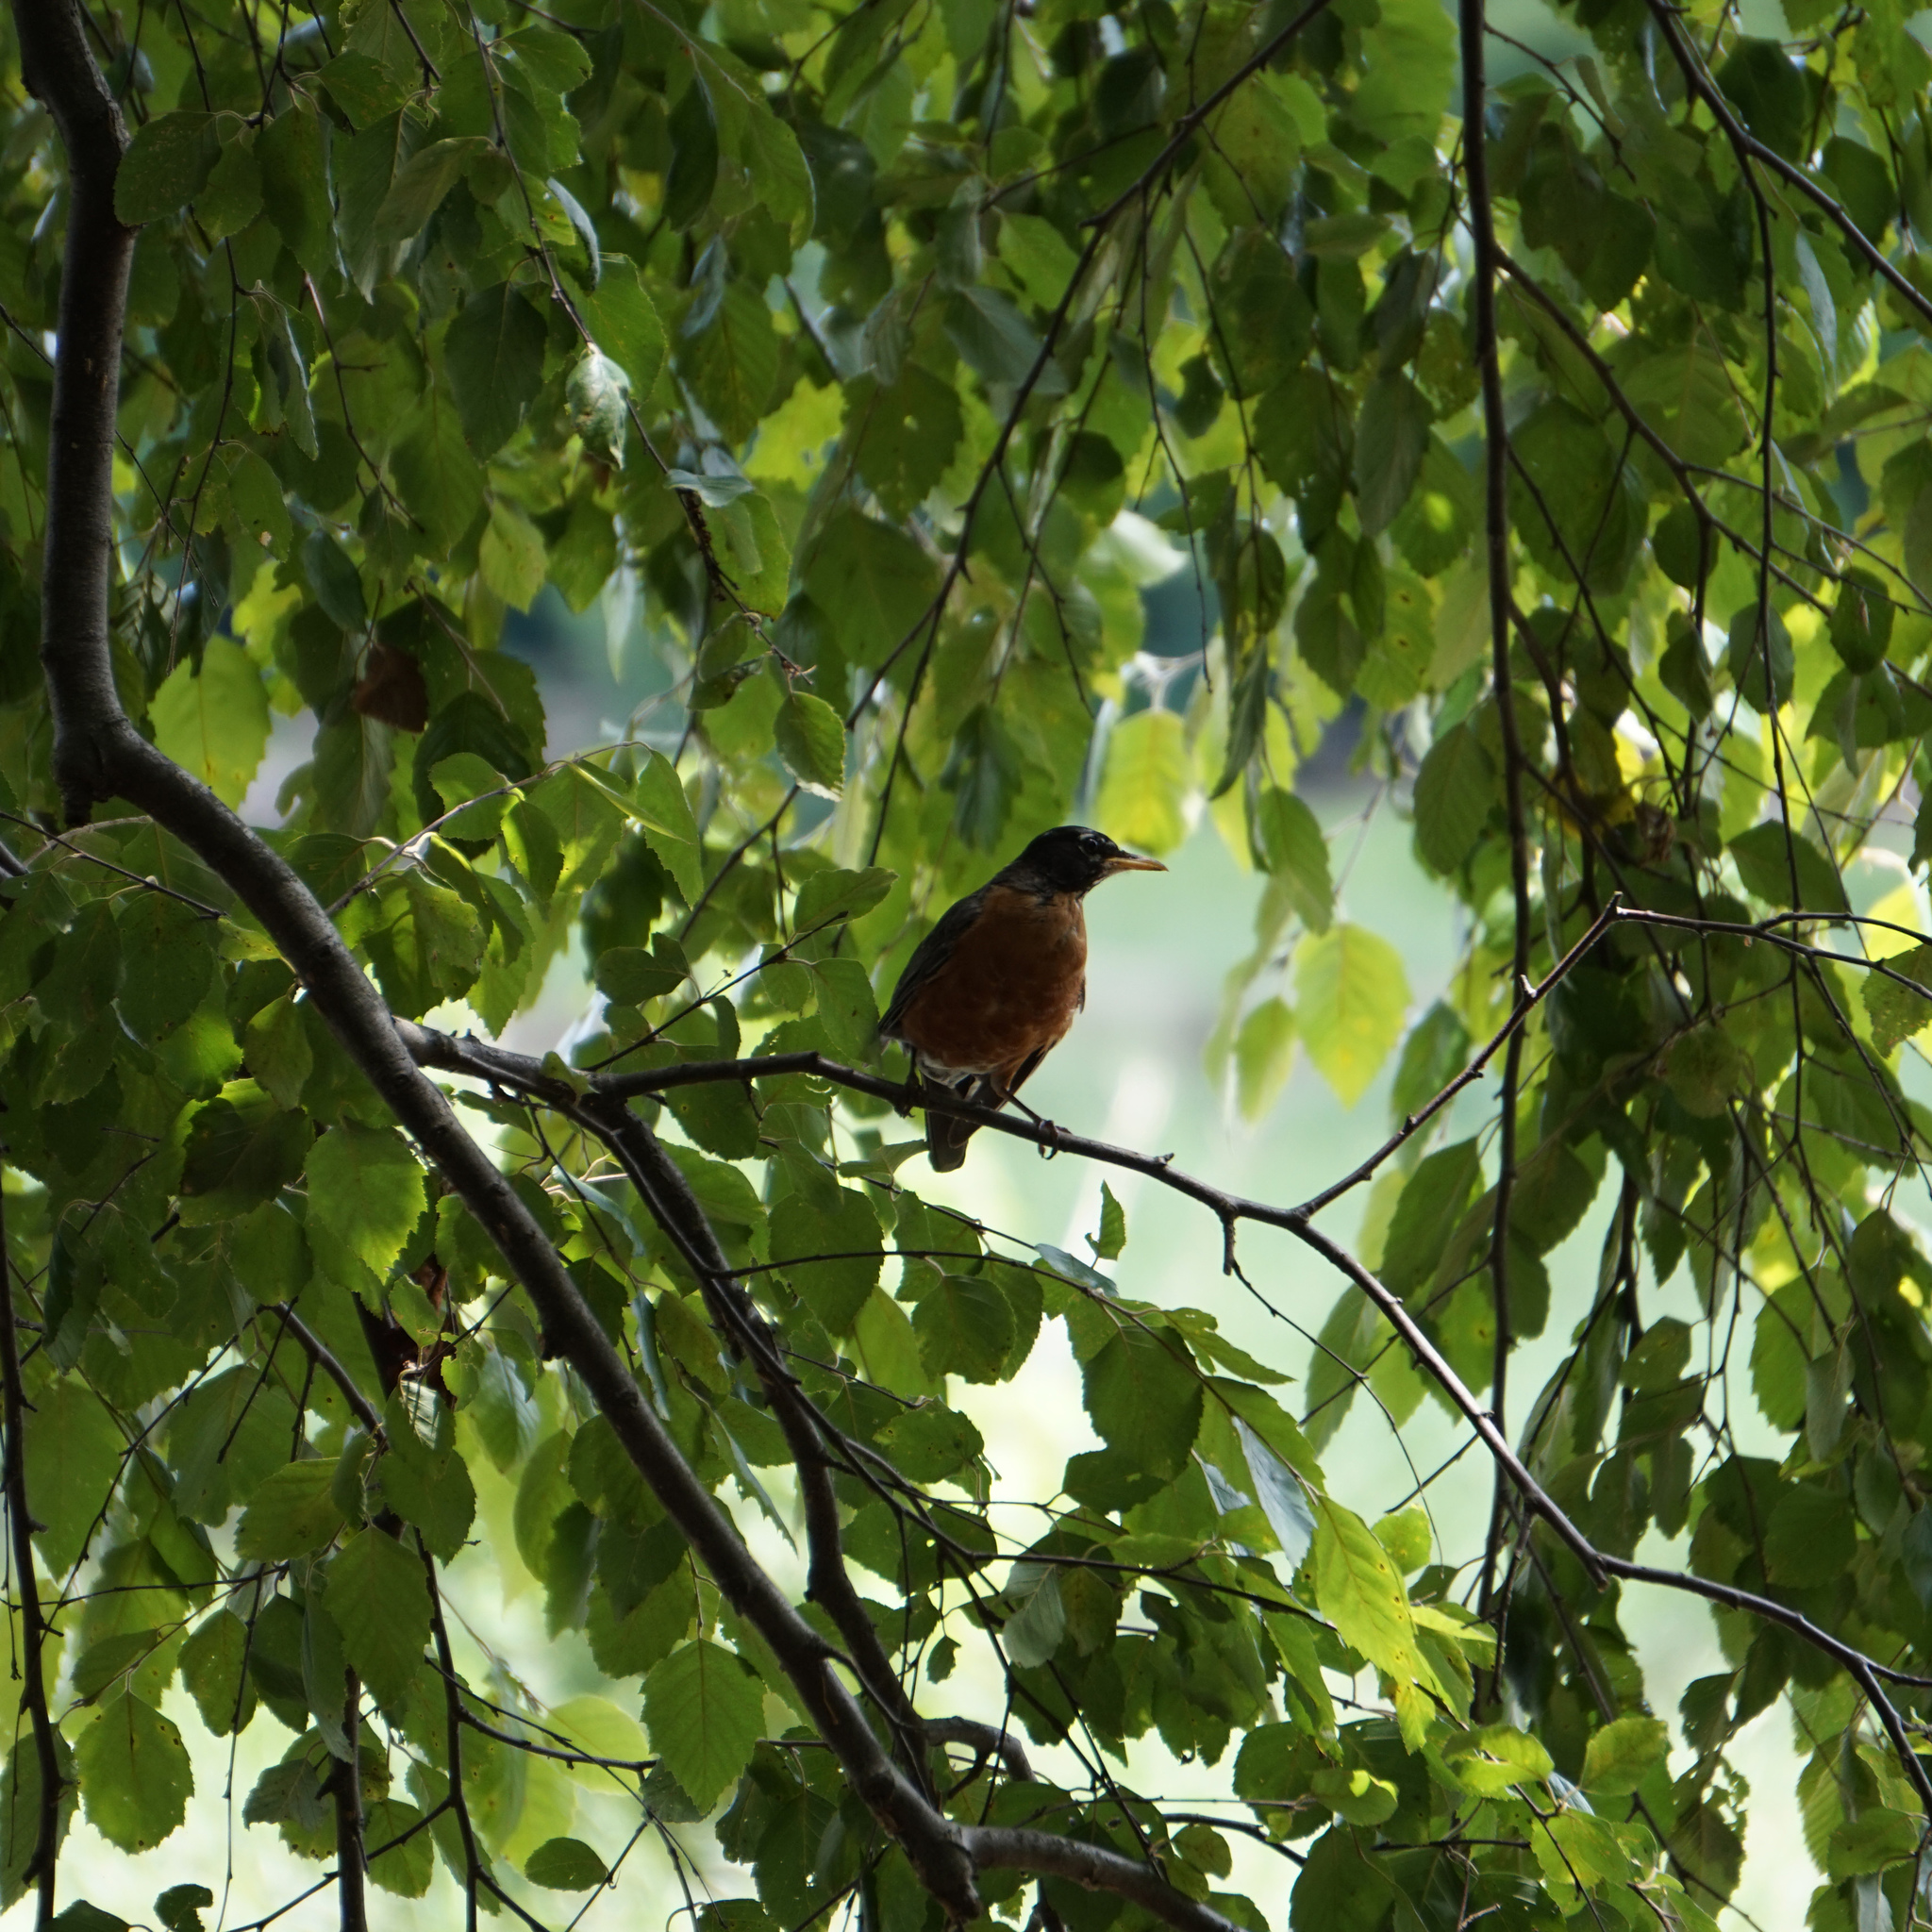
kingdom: Animalia
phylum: Chordata
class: Aves
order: Passeriformes
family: Turdidae
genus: Turdus
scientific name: Turdus migratorius
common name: American robin
